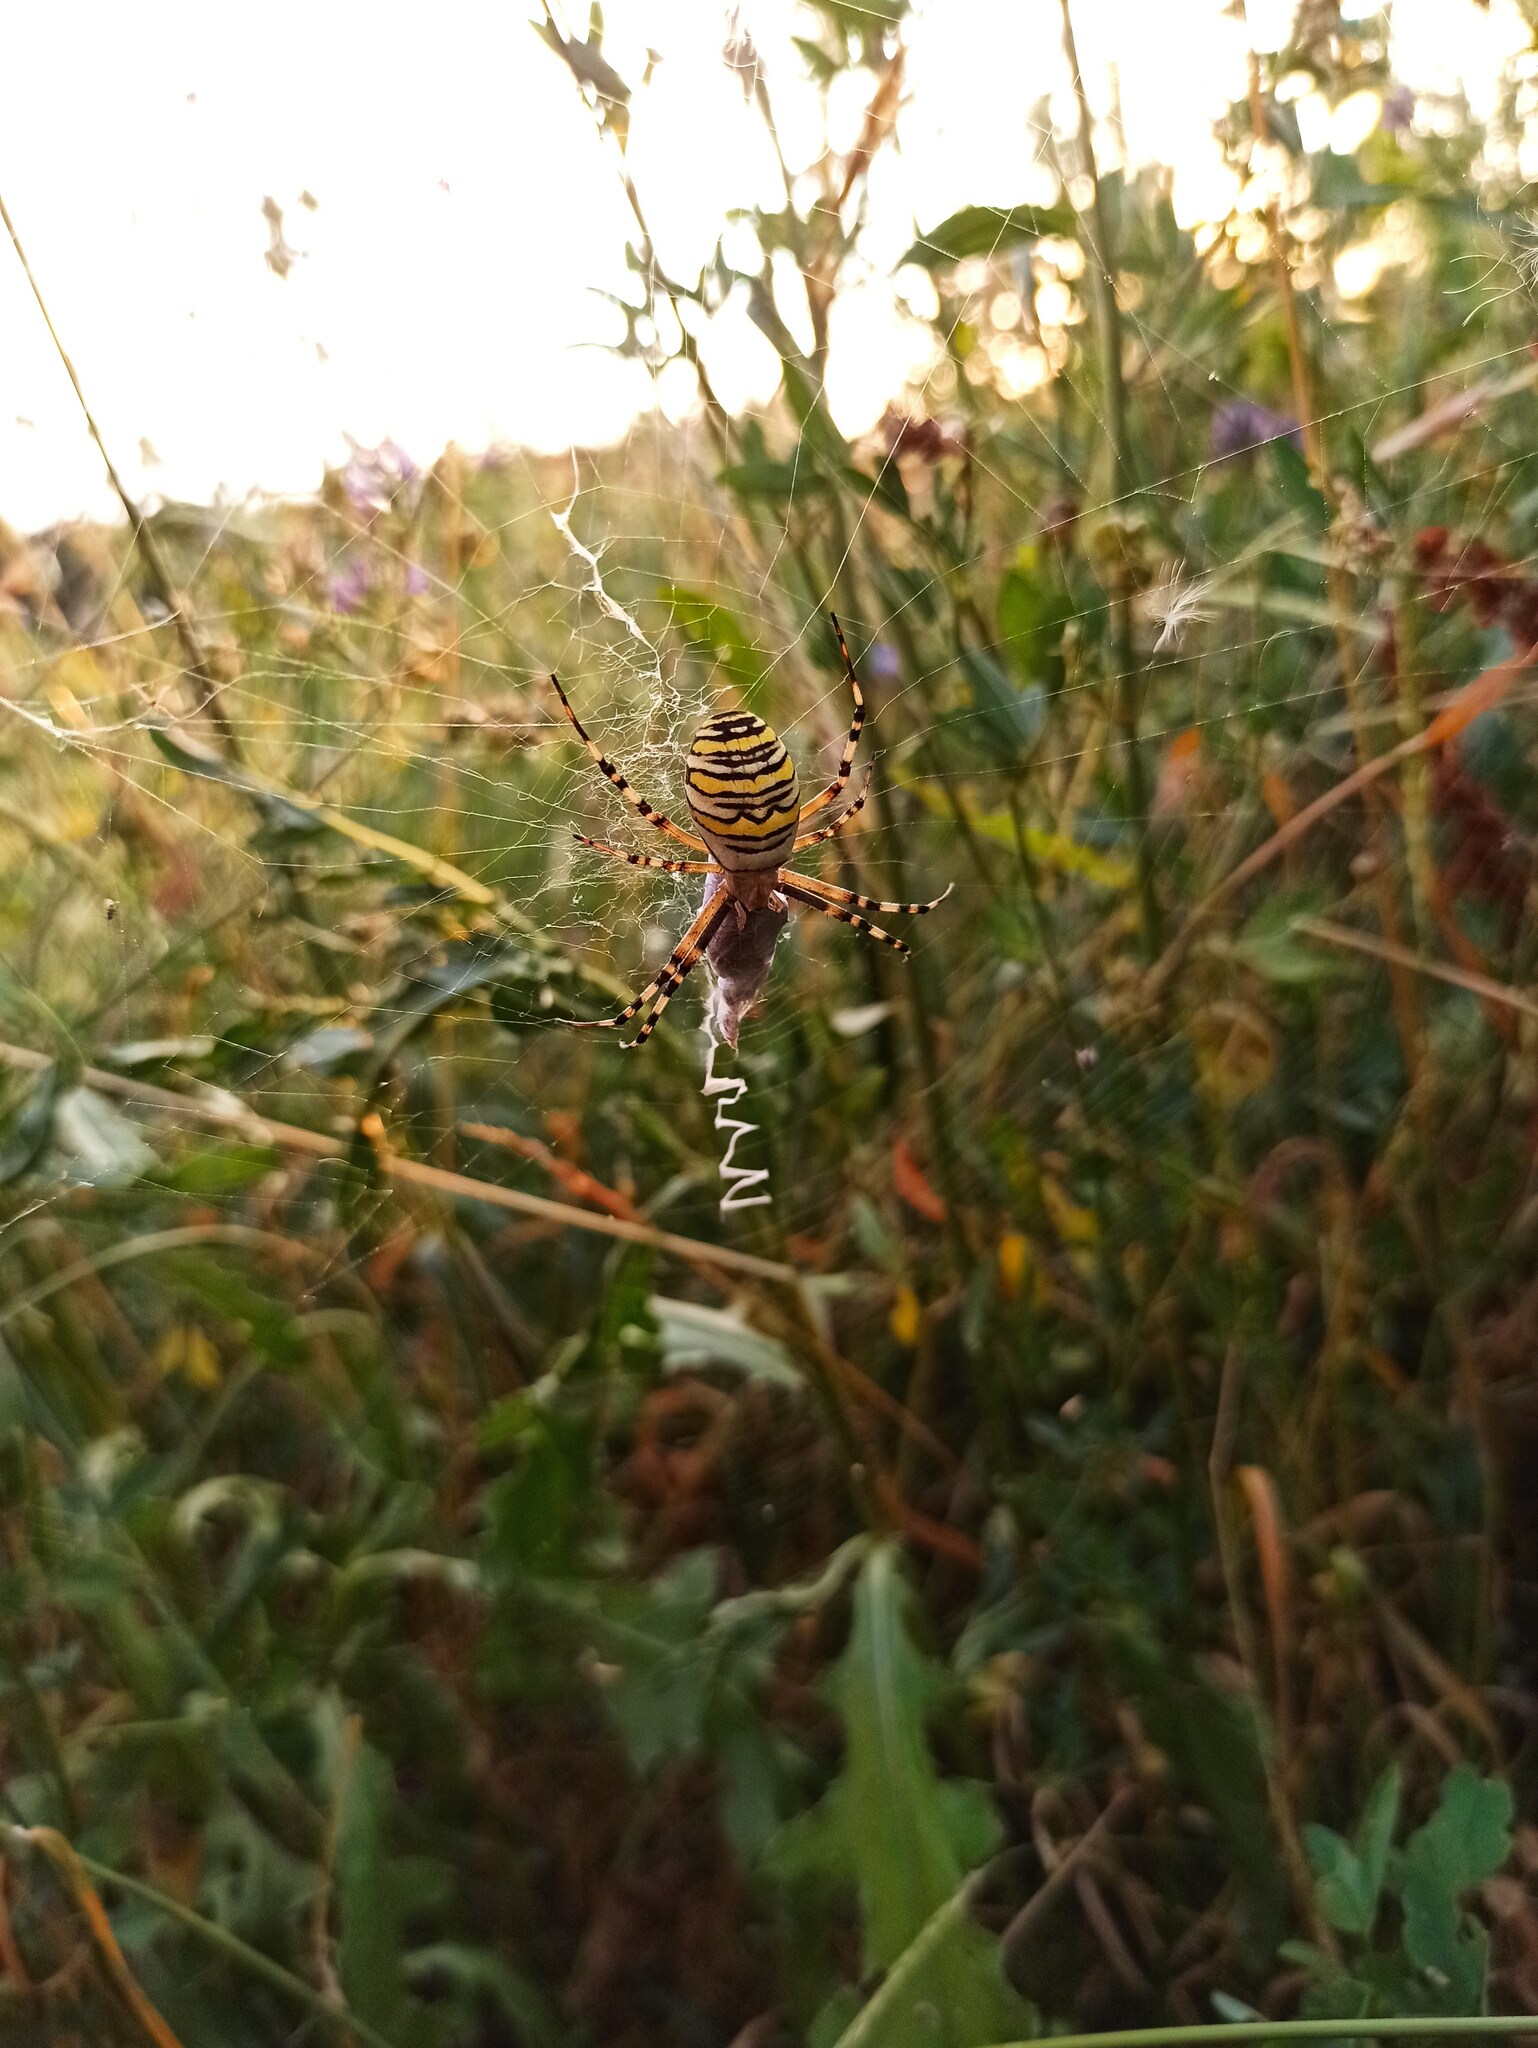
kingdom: Animalia
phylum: Arthropoda
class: Arachnida
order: Araneae
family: Araneidae
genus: Argiope
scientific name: Argiope bruennichi
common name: Wasp spider
